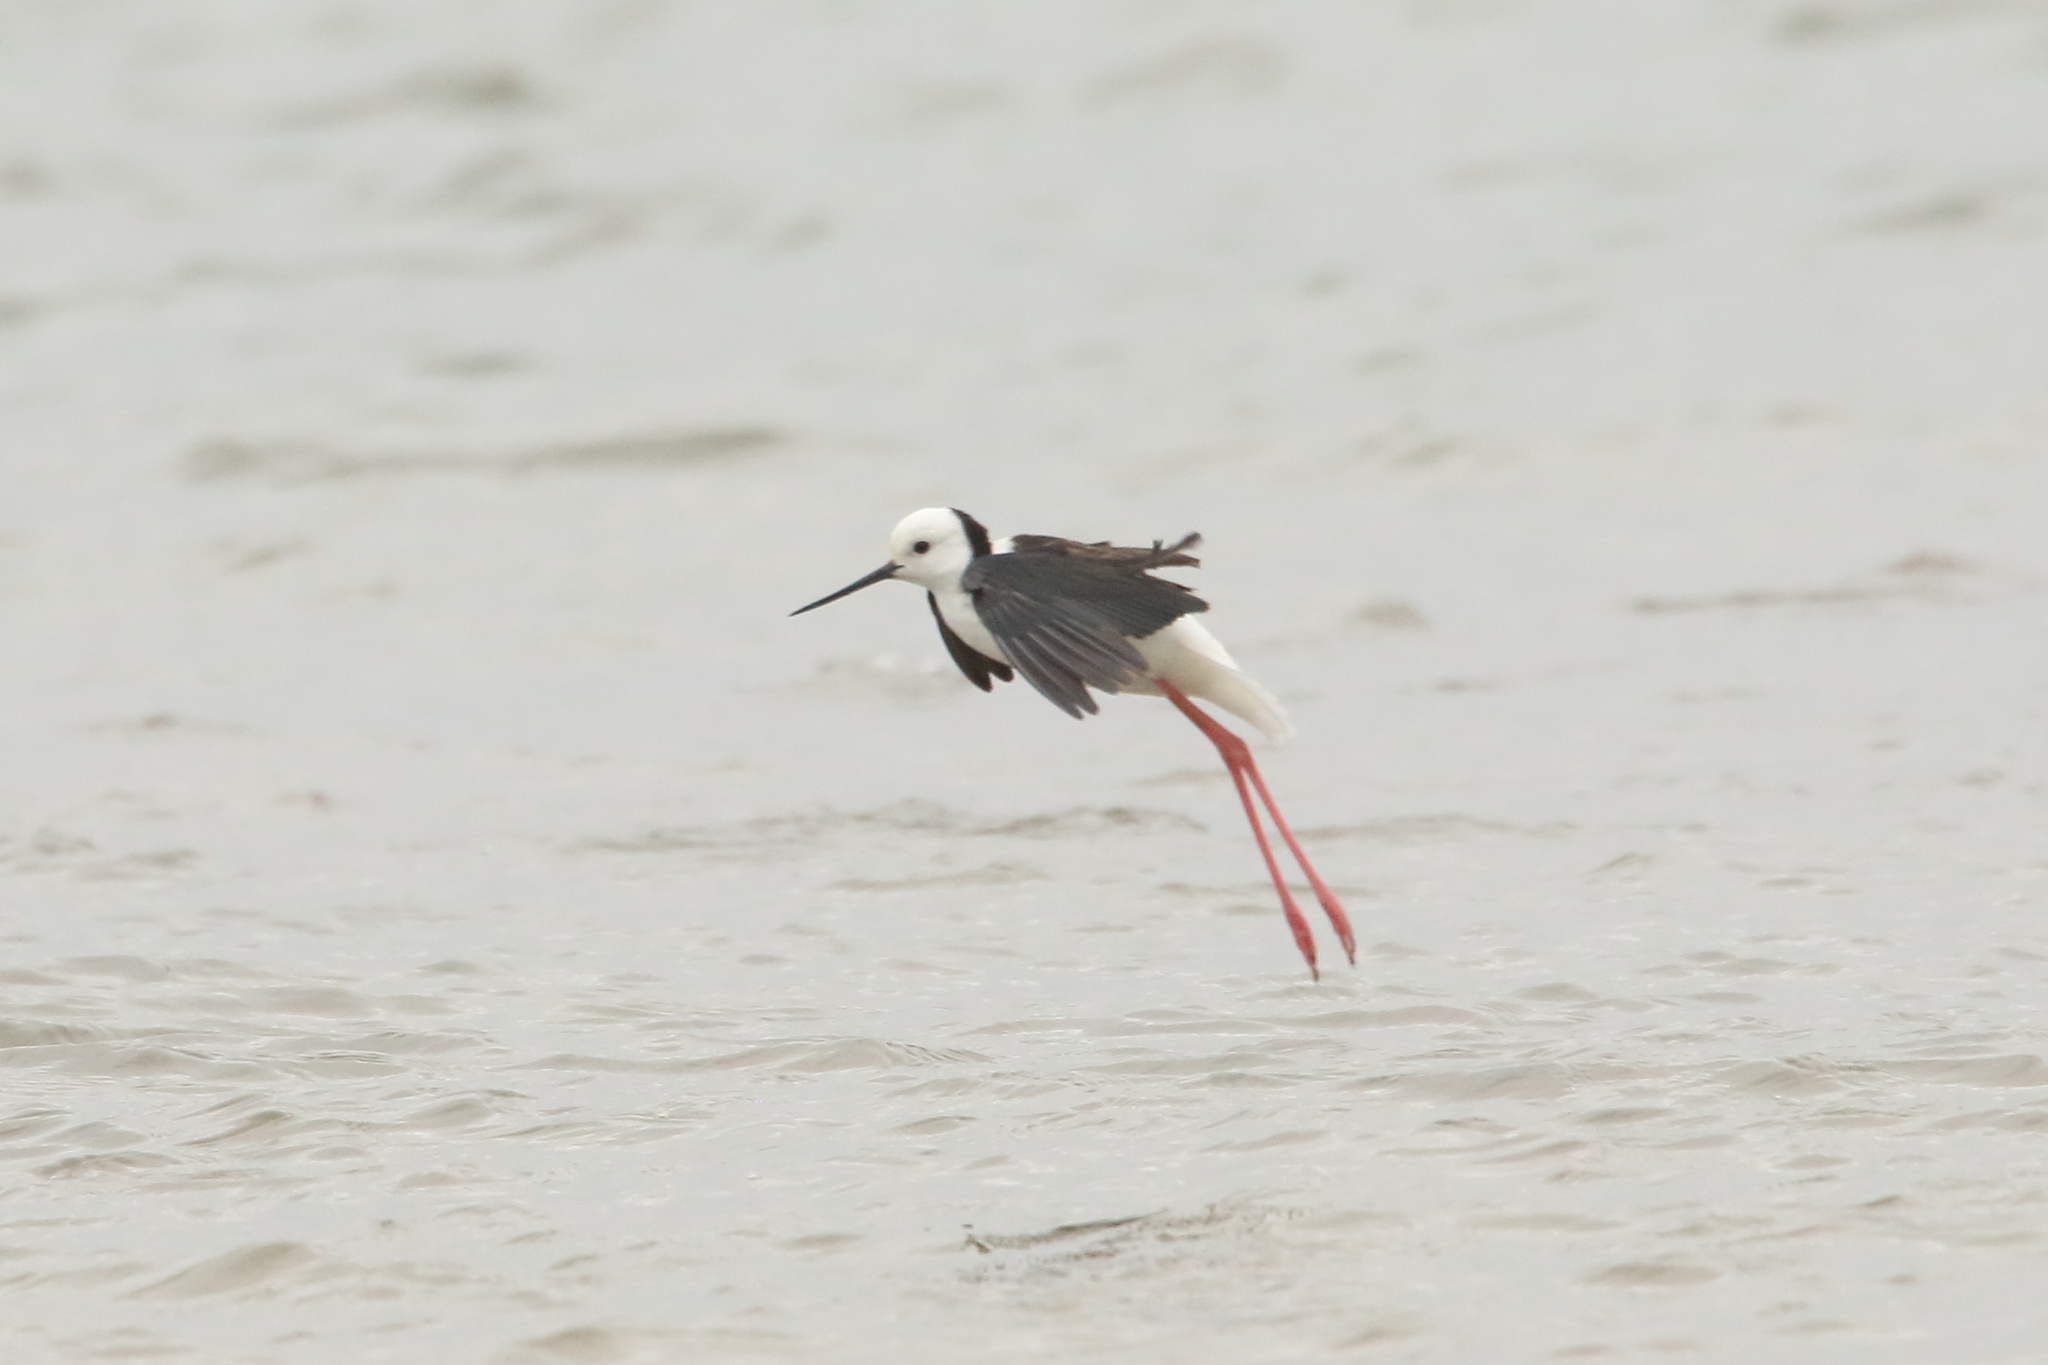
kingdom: Animalia
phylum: Chordata
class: Aves
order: Charadriiformes
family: Recurvirostridae
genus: Himantopus
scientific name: Himantopus leucocephalus
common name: White-headed stilt
